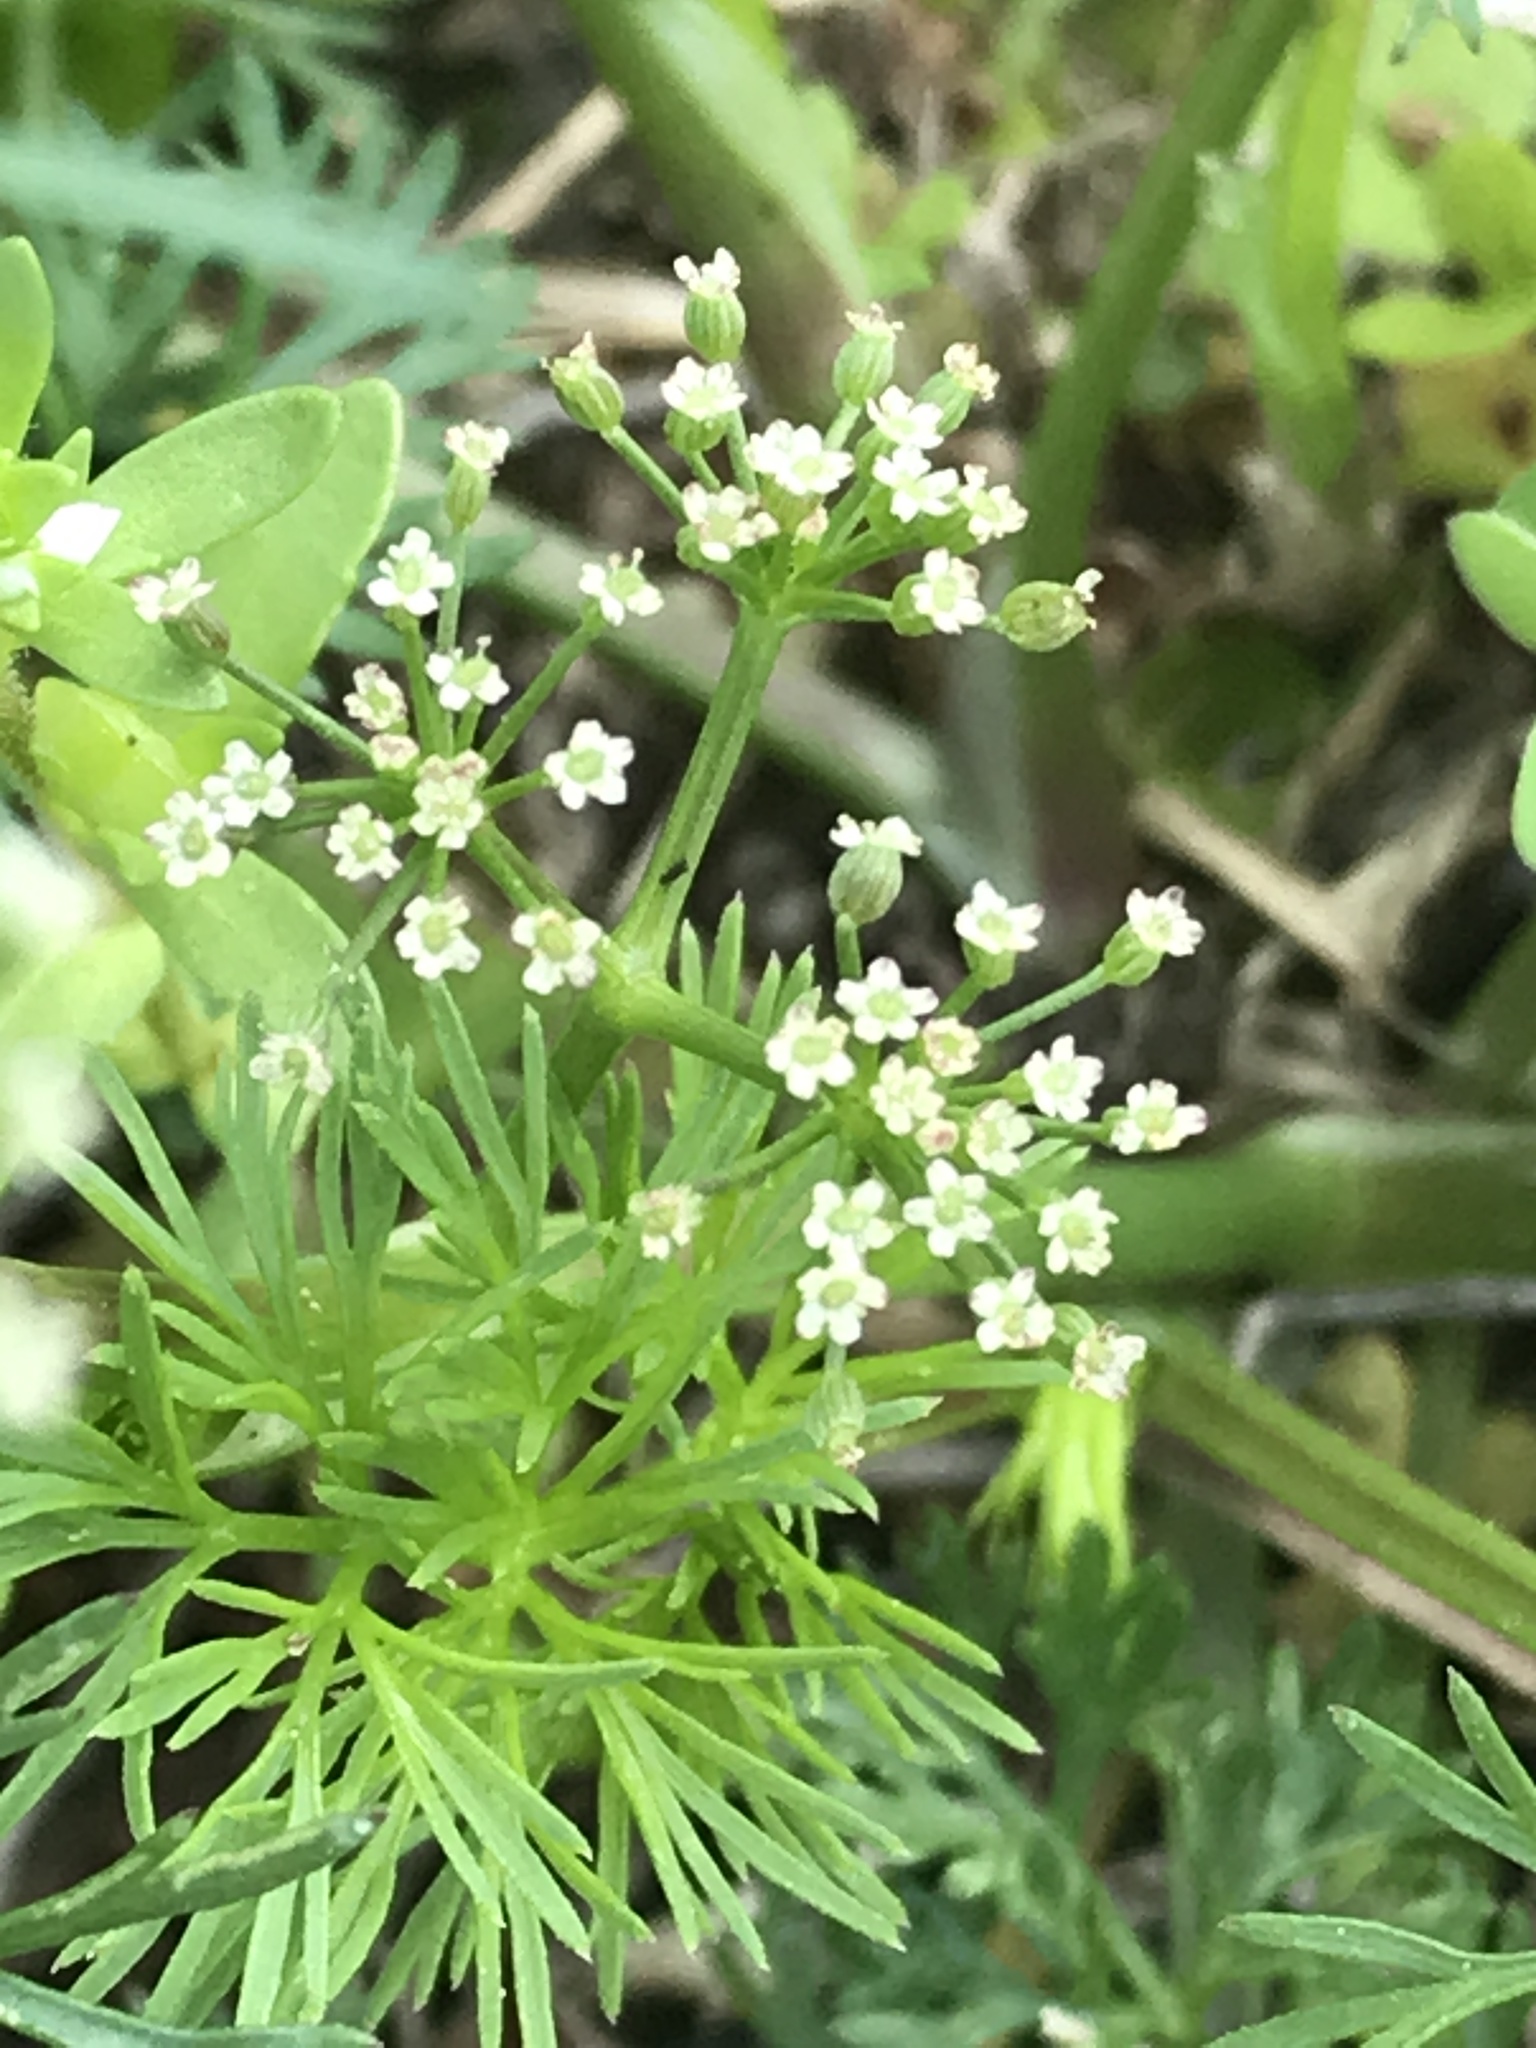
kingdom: Plantae
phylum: Tracheophyta
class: Magnoliopsida
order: Apiales
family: Apiaceae
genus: Cyclospermum
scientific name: Cyclospermum leptophyllum
